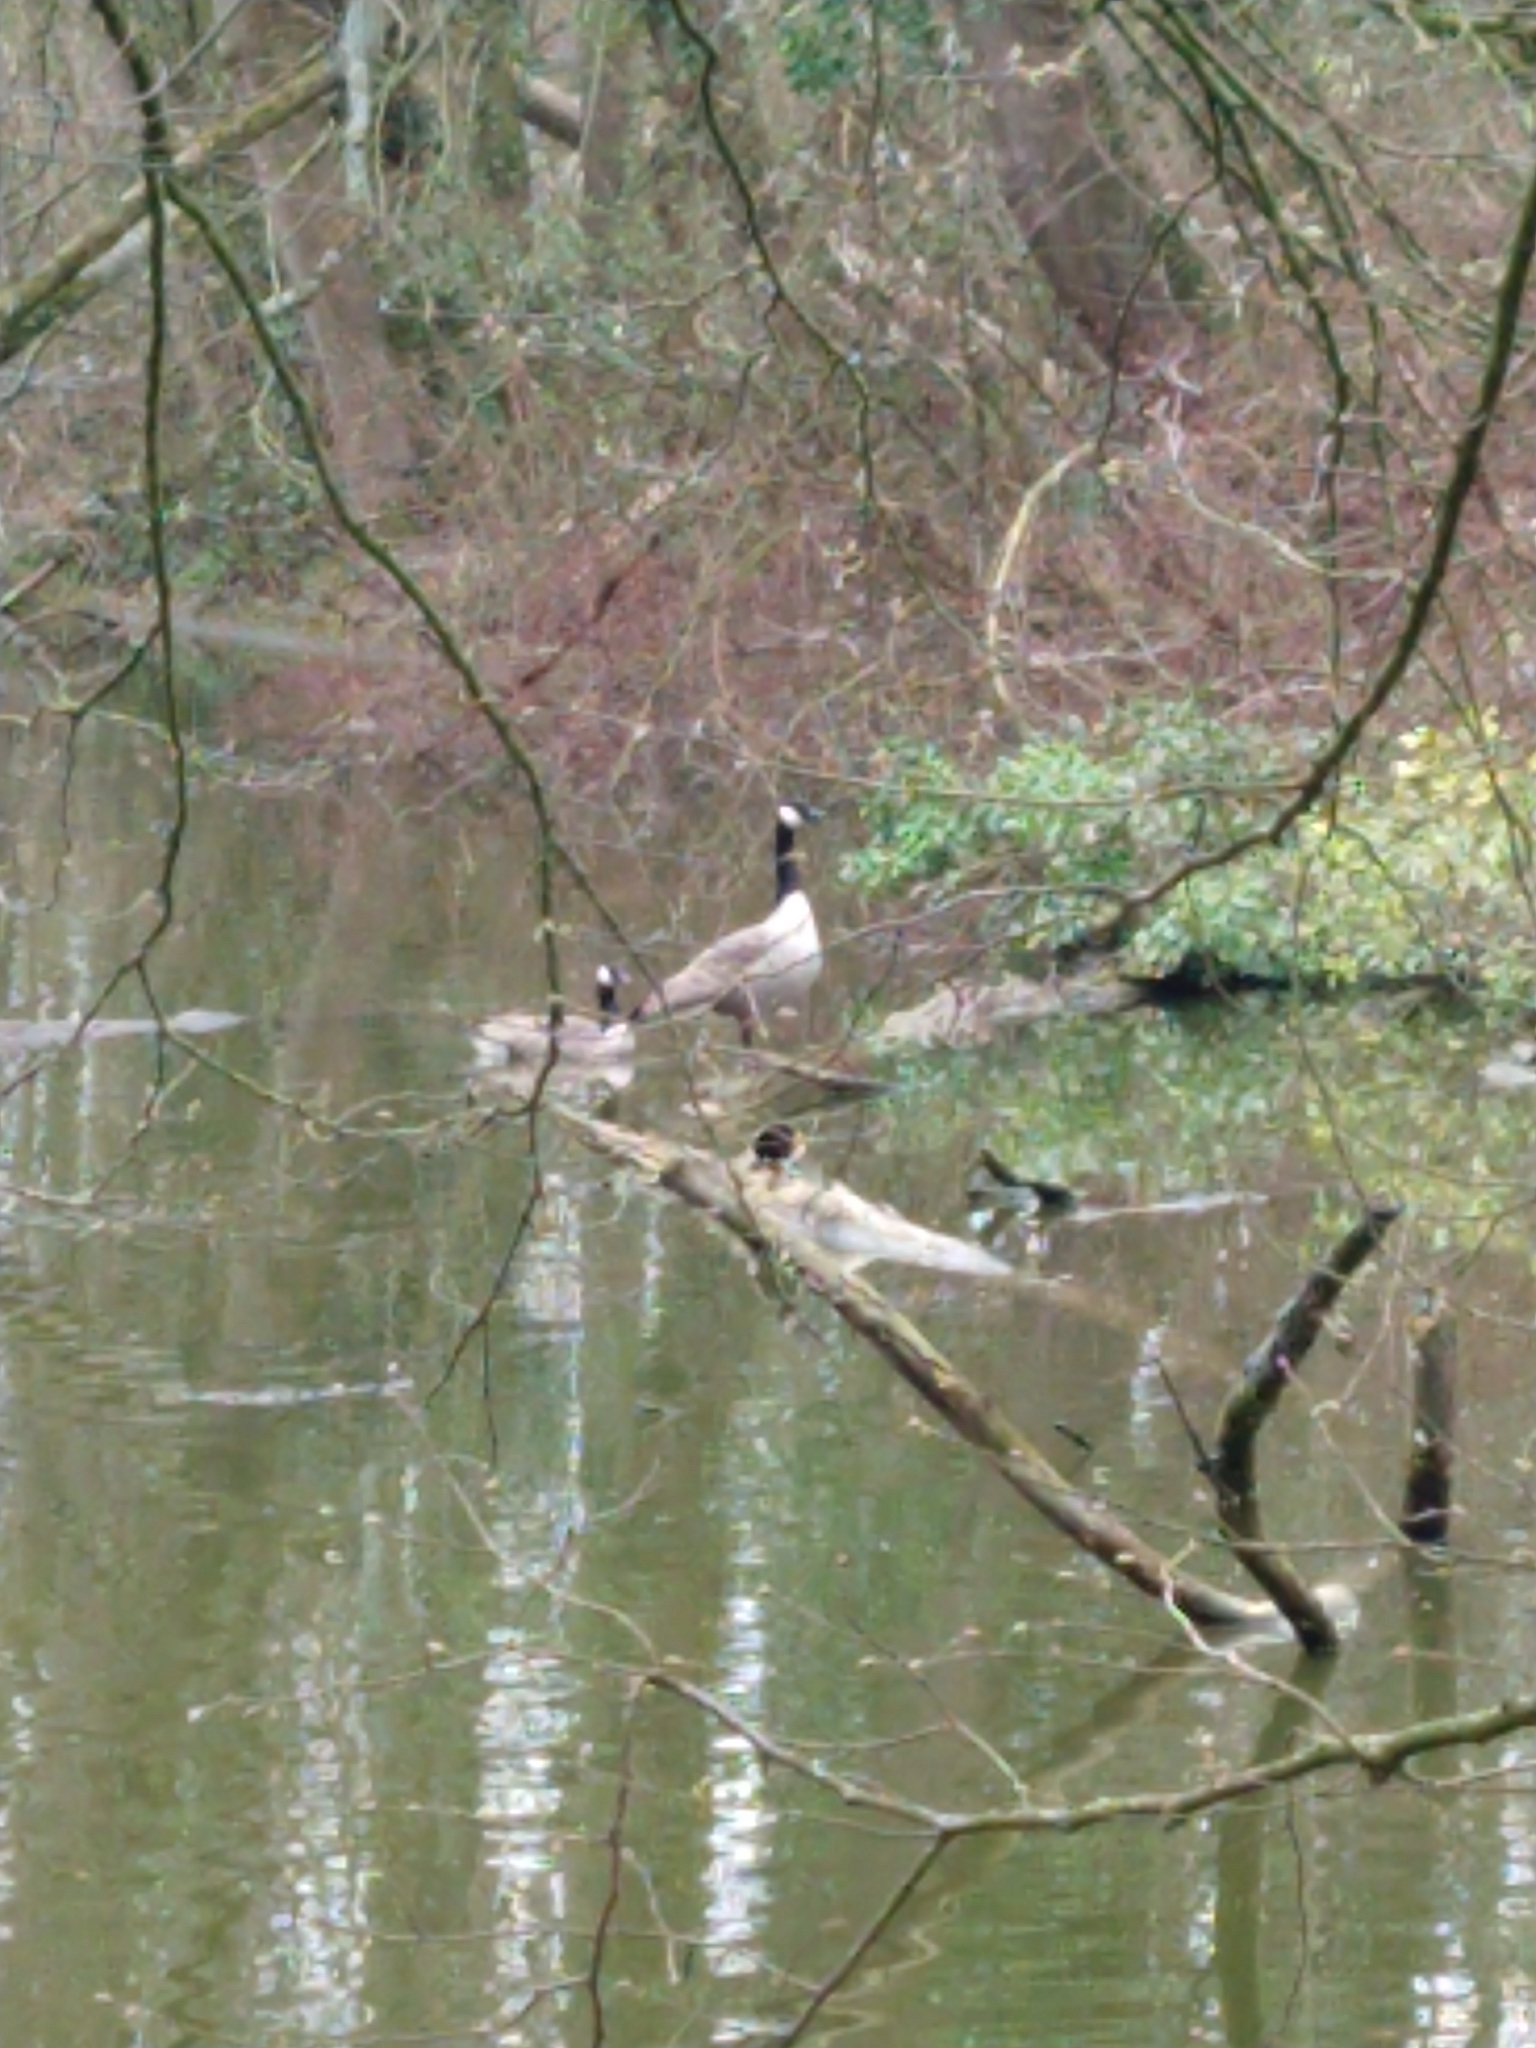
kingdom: Animalia
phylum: Chordata
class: Aves
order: Anseriformes
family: Anatidae
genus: Branta
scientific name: Branta canadensis
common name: Canada goose
